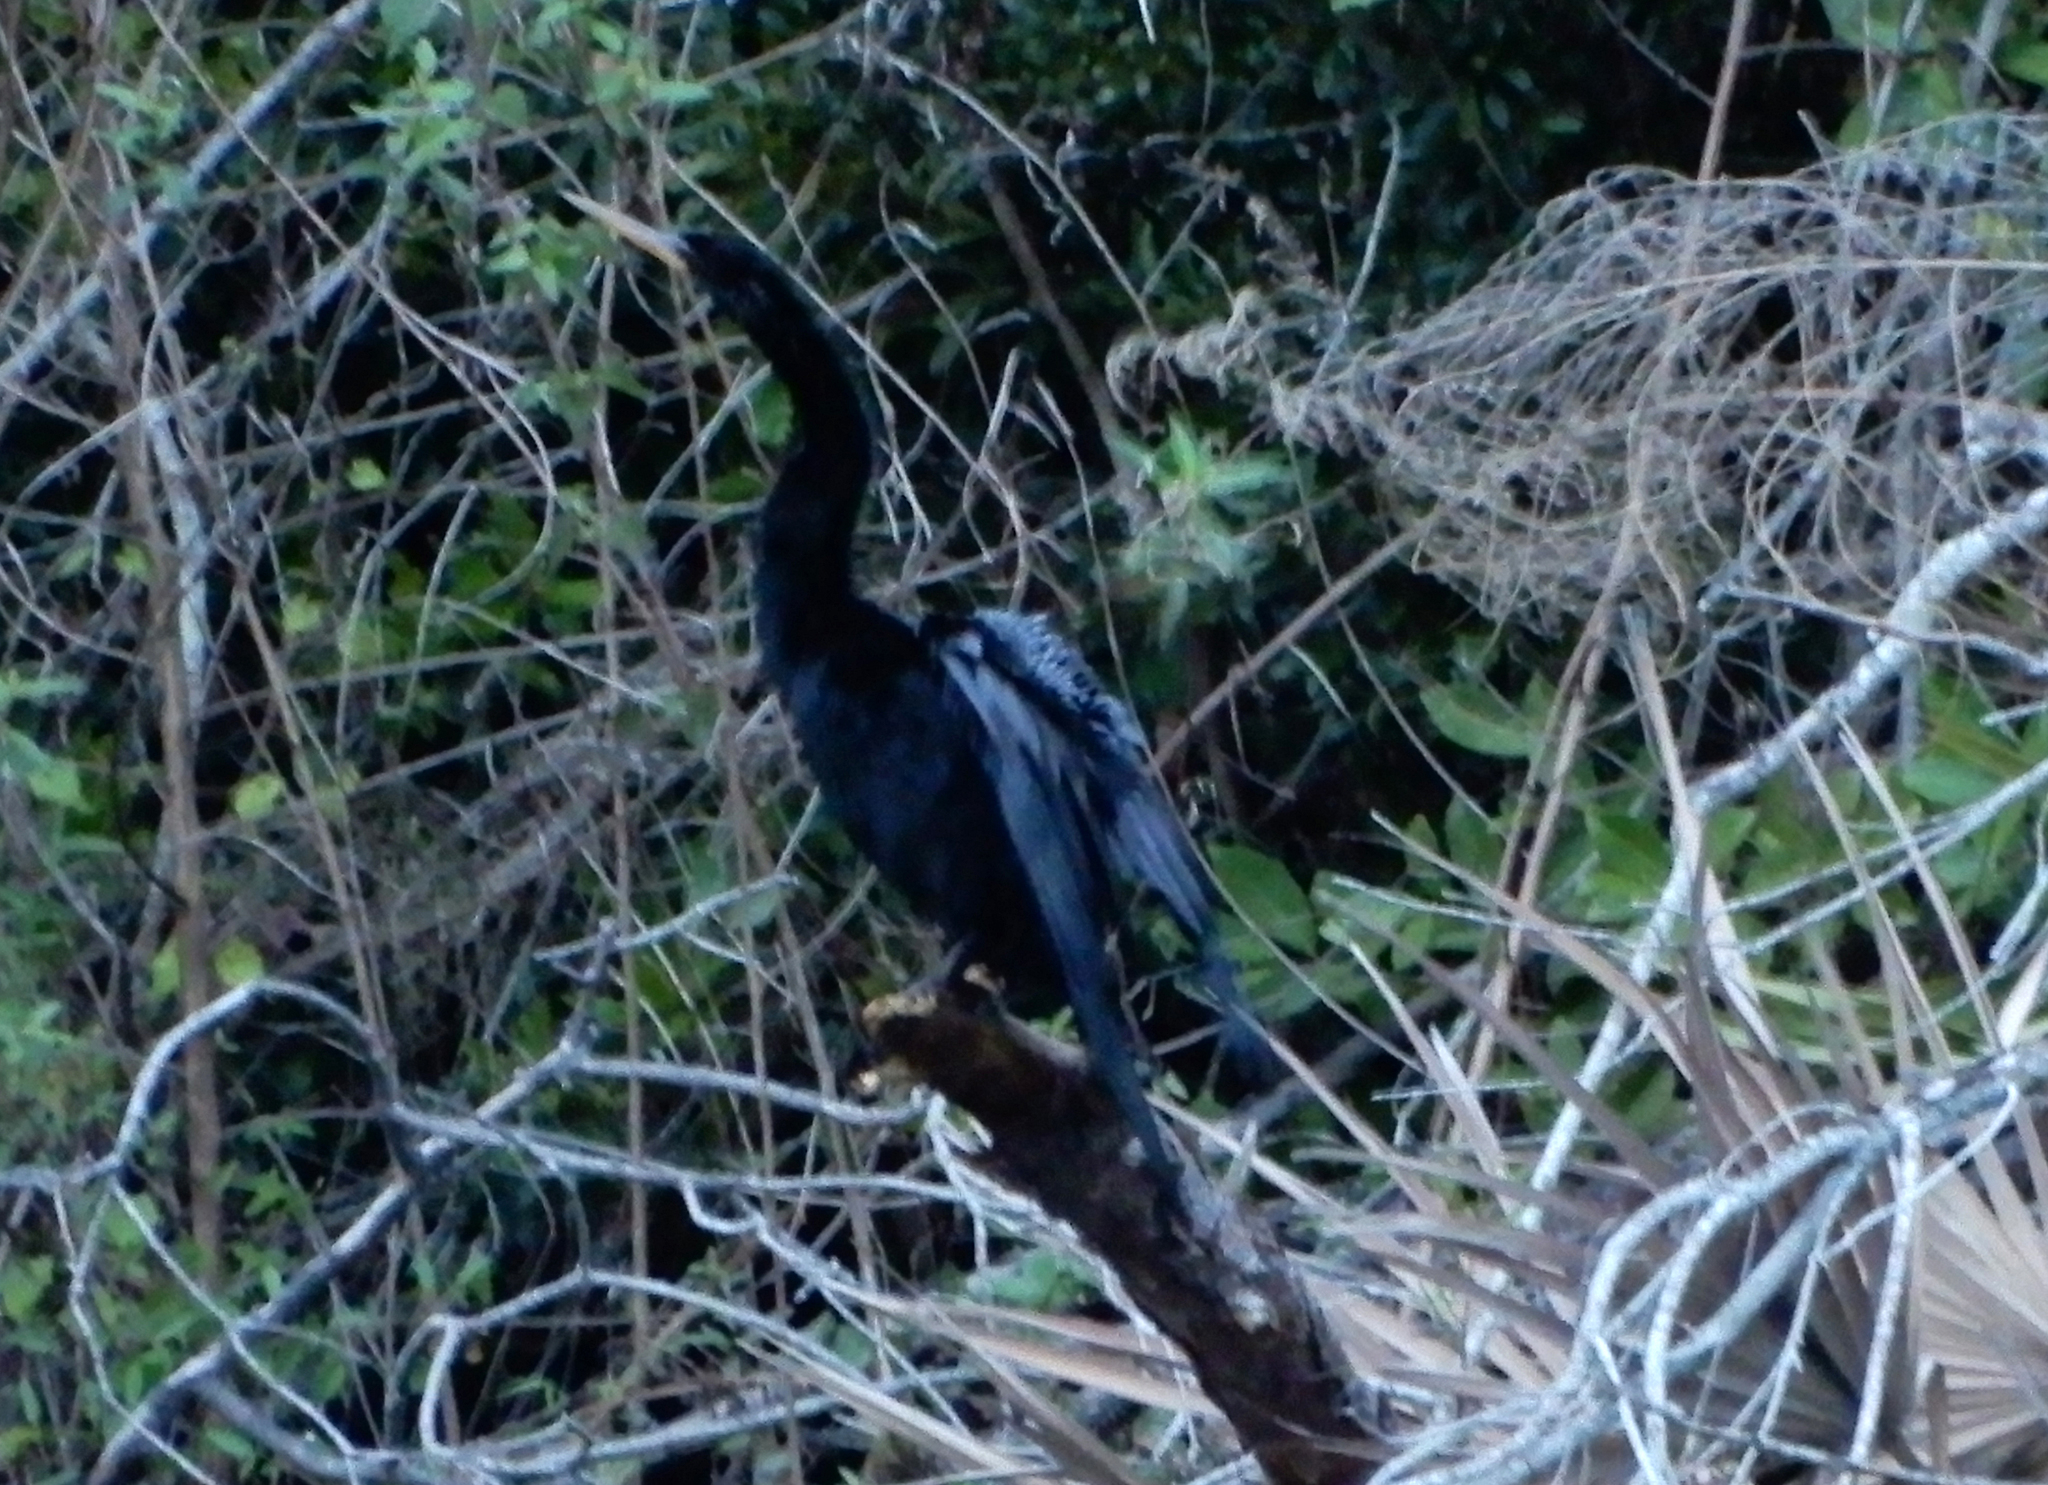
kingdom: Animalia
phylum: Chordata
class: Aves
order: Suliformes
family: Anhingidae
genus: Anhinga
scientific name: Anhinga anhinga
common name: Anhinga
